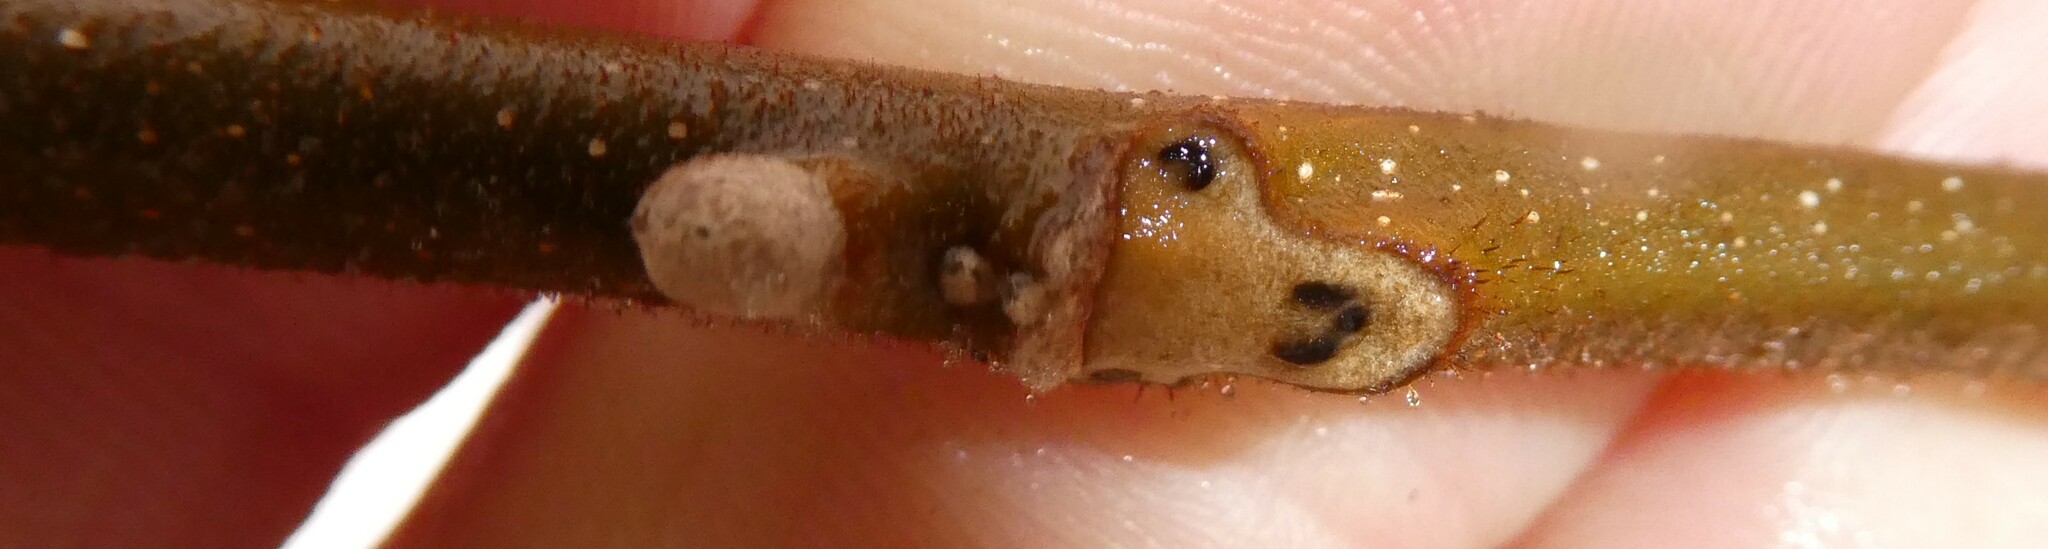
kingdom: Plantae
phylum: Tracheophyta
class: Magnoliopsida
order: Fagales
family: Juglandaceae
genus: Juglans
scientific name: Juglans cinerea
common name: Butternut
